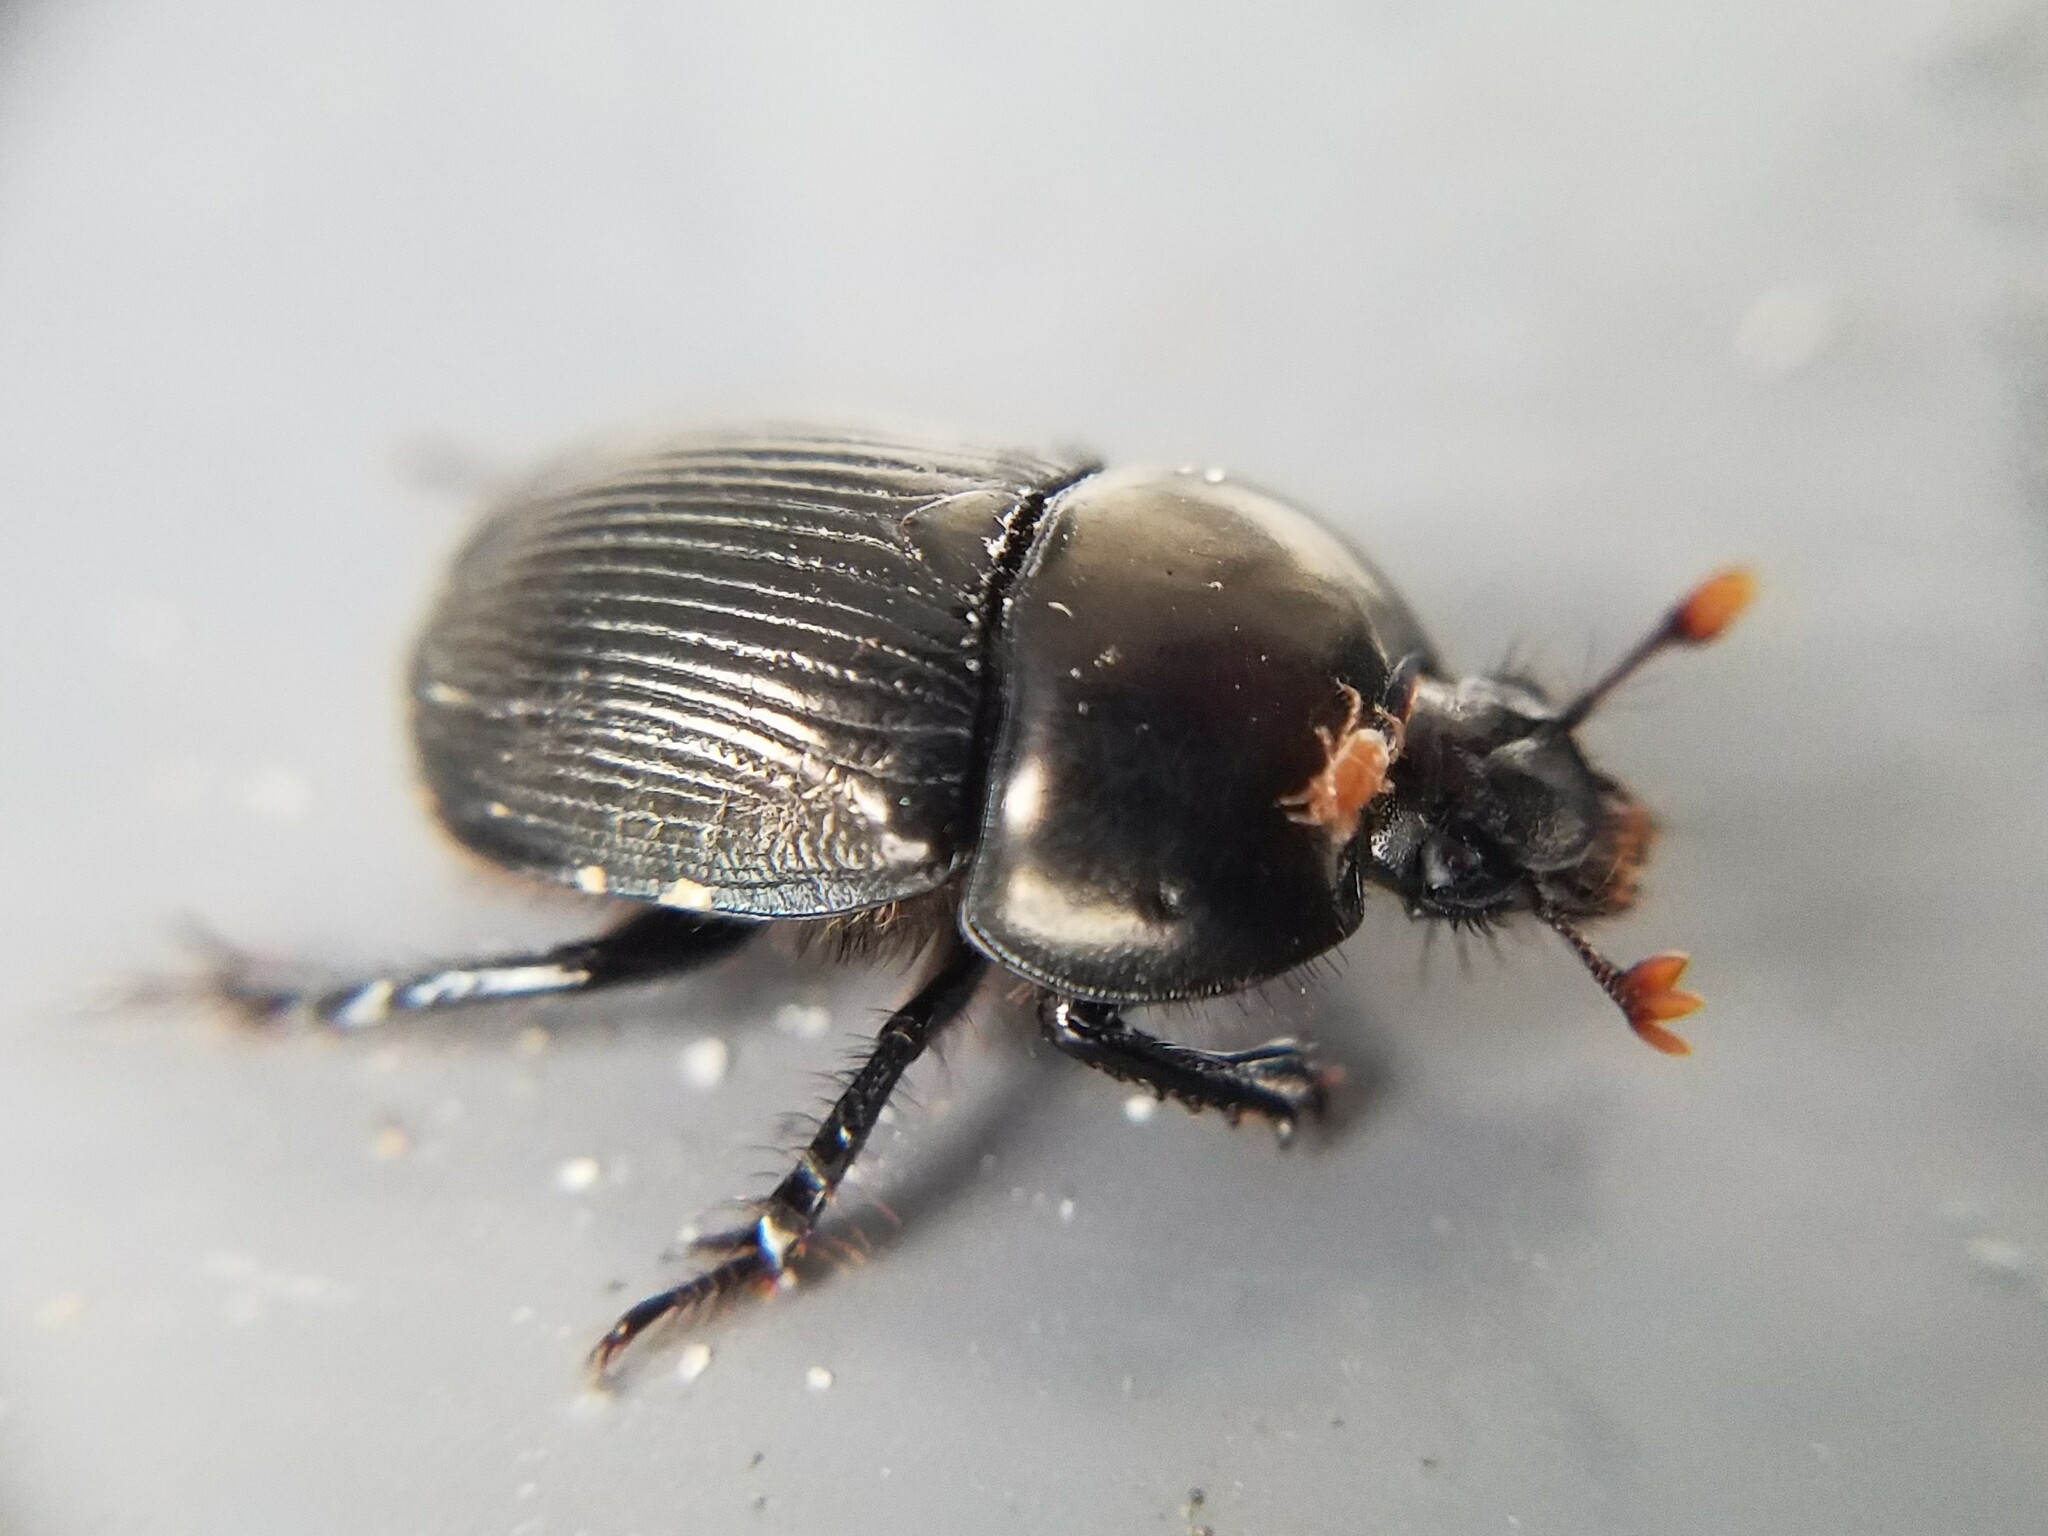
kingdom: Animalia
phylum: Arthropoda
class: Insecta
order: Coleoptera
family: Geotrupidae
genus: Cnemotrupes
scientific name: Cnemotrupes semiopacus
